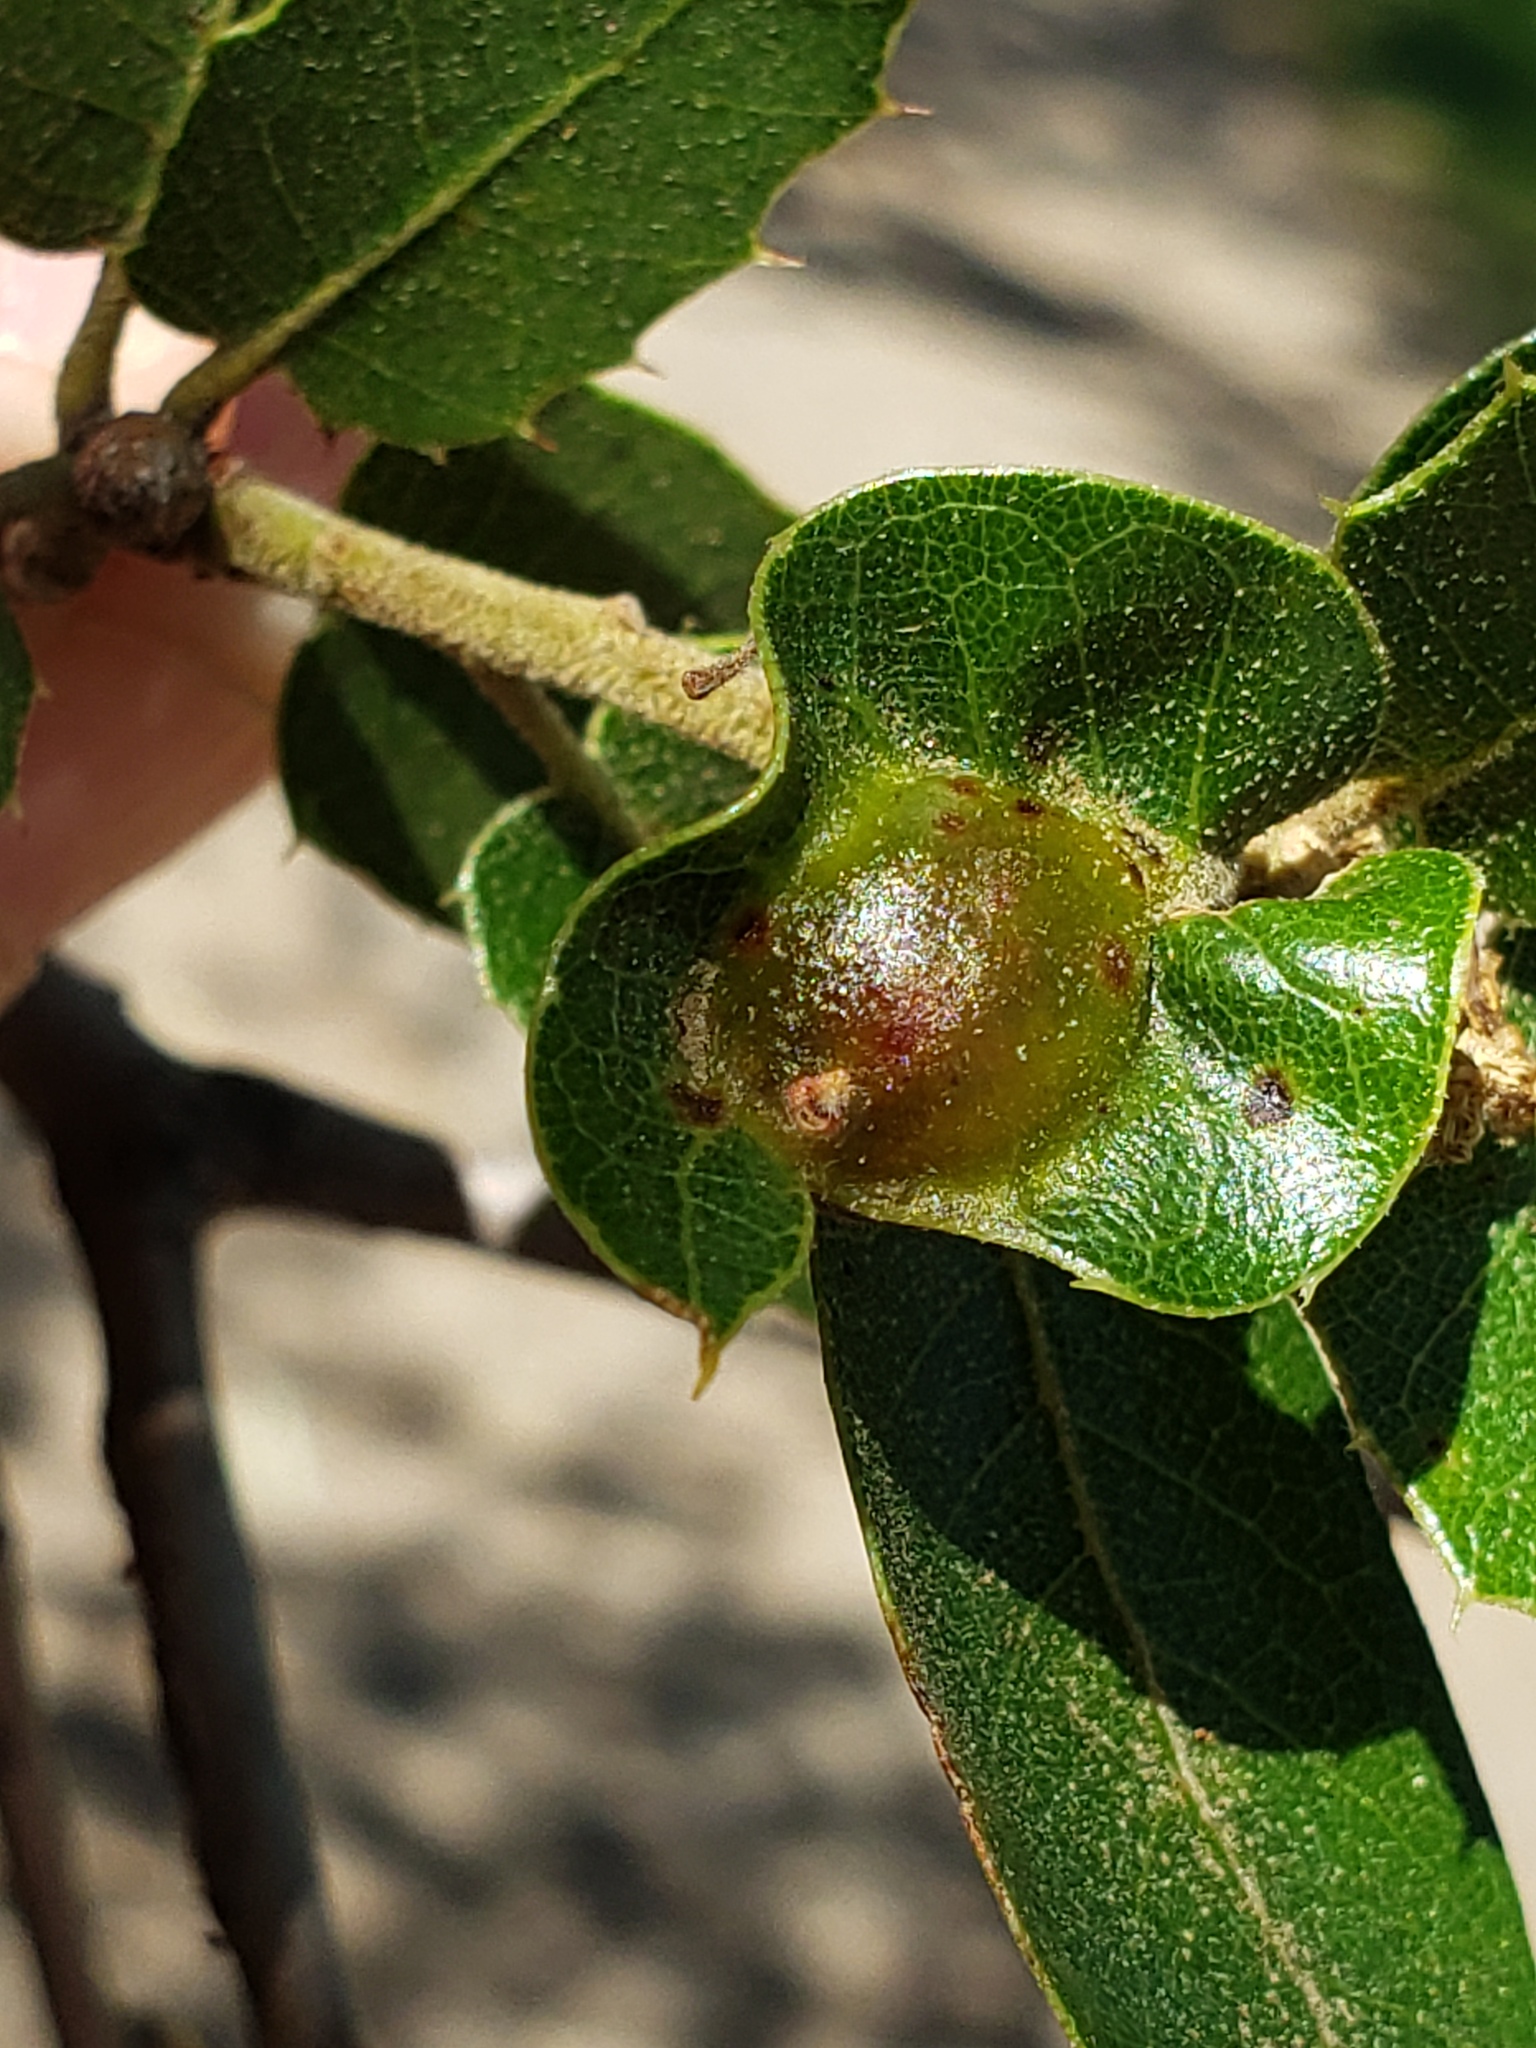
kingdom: Animalia
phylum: Arthropoda
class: Insecta
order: Hymenoptera
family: Cynipidae
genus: Callirhytis
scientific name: Callirhytis
